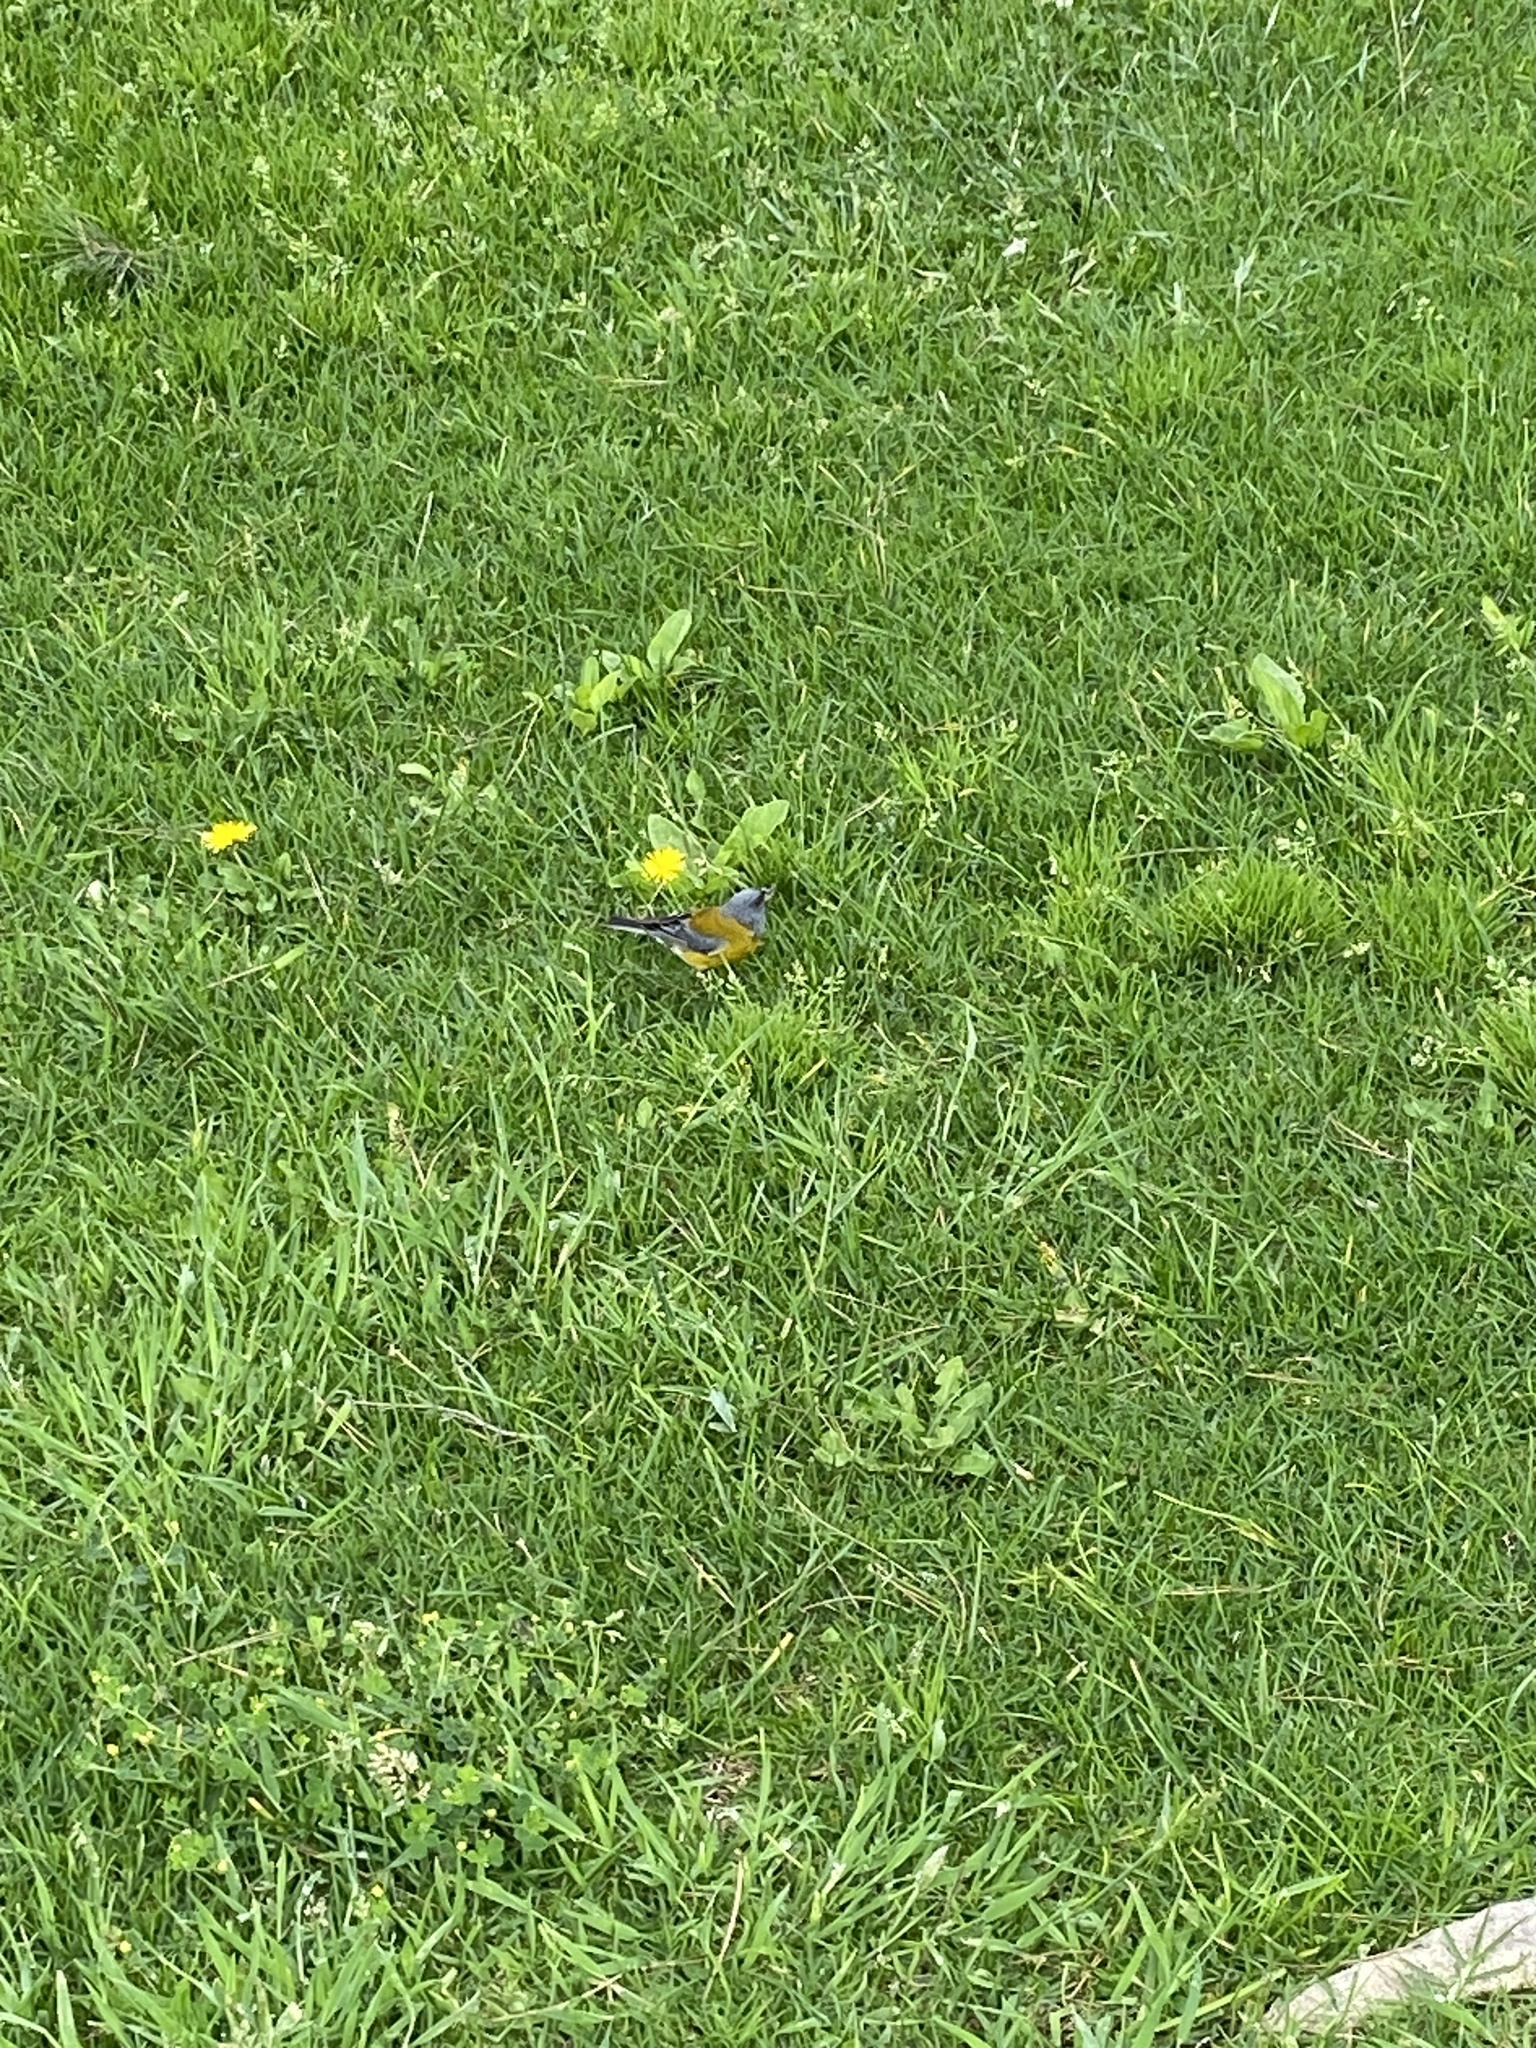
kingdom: Animalia
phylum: Chordata
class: Aves
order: Passeriformes
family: Thraupidae
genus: Phrygilus
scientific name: Phrygilus gayi
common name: Grey-hooded sierra finch
